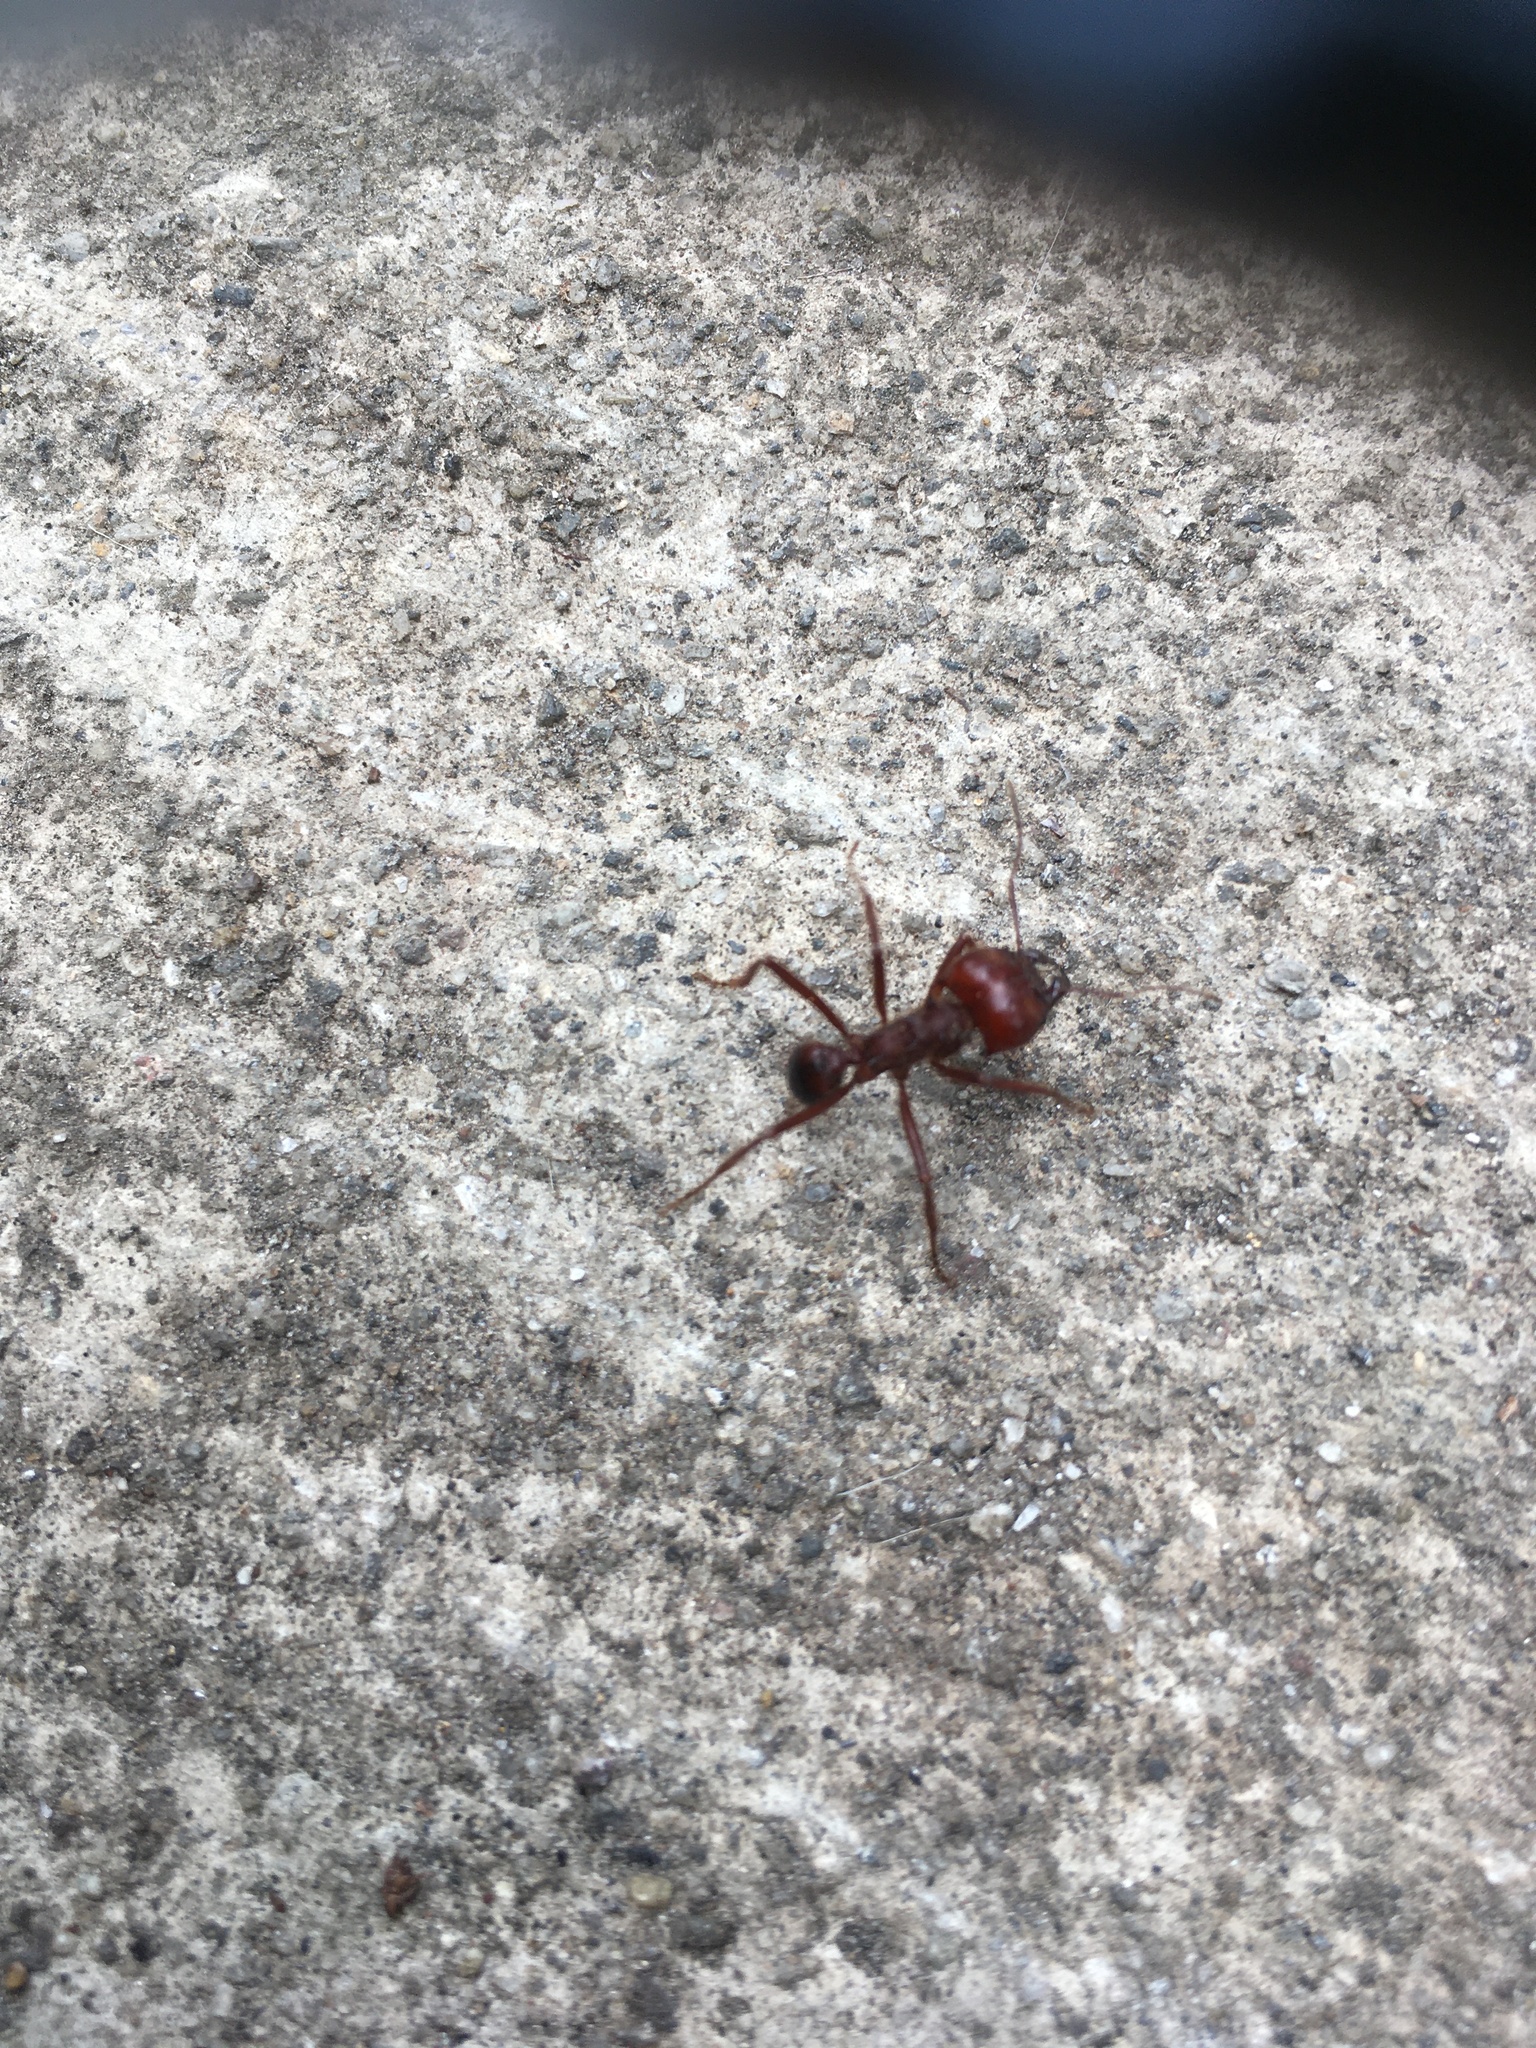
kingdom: Animalia
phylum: Arthropoda
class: Insecta
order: Hymenoptera
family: Formicidae
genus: Atta
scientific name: Atta mexicana
